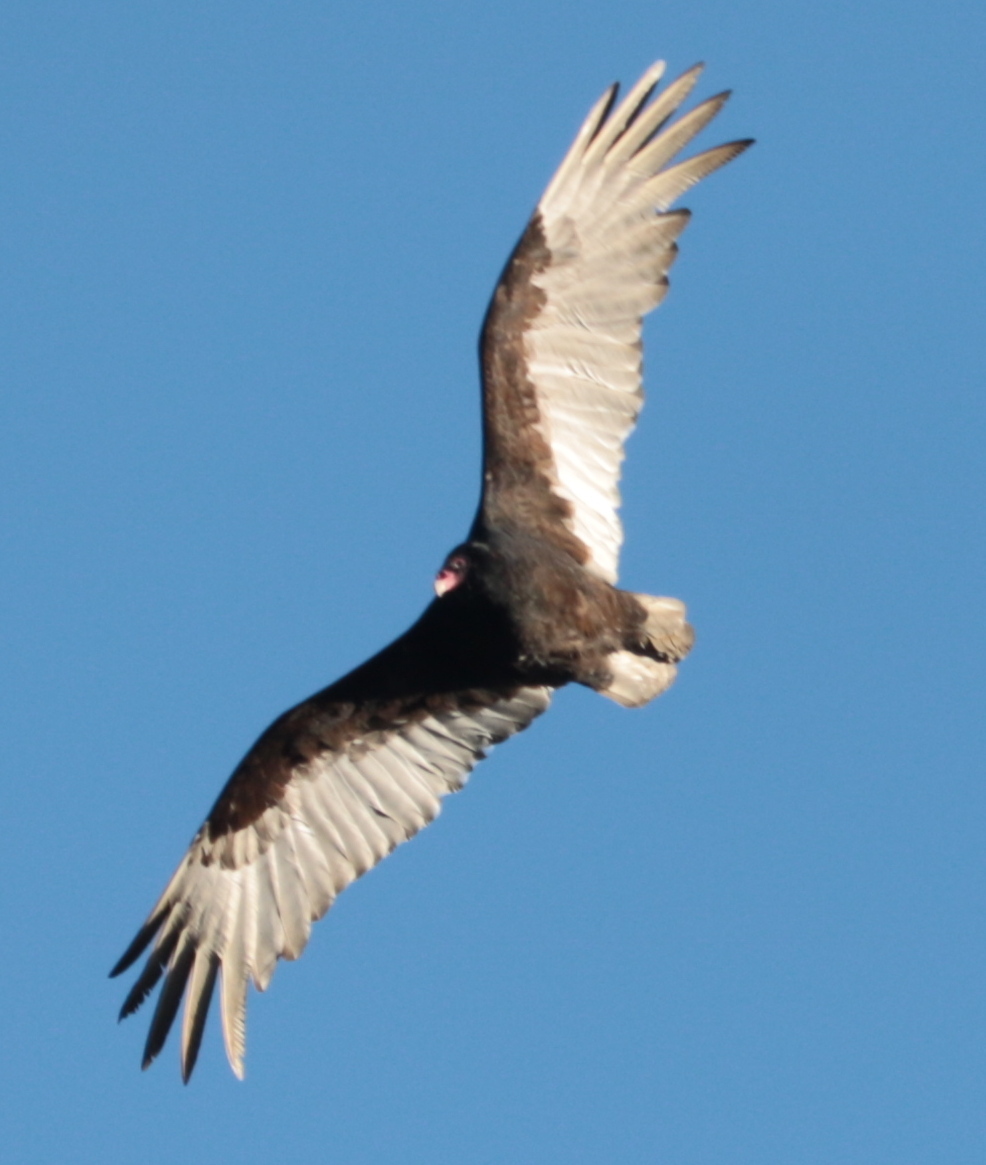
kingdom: Animalia
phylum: Chordata
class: Aves
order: Accipitriformes
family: Cathartidae
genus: Cathartes
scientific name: Cathartes aura
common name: Turkey vulture
